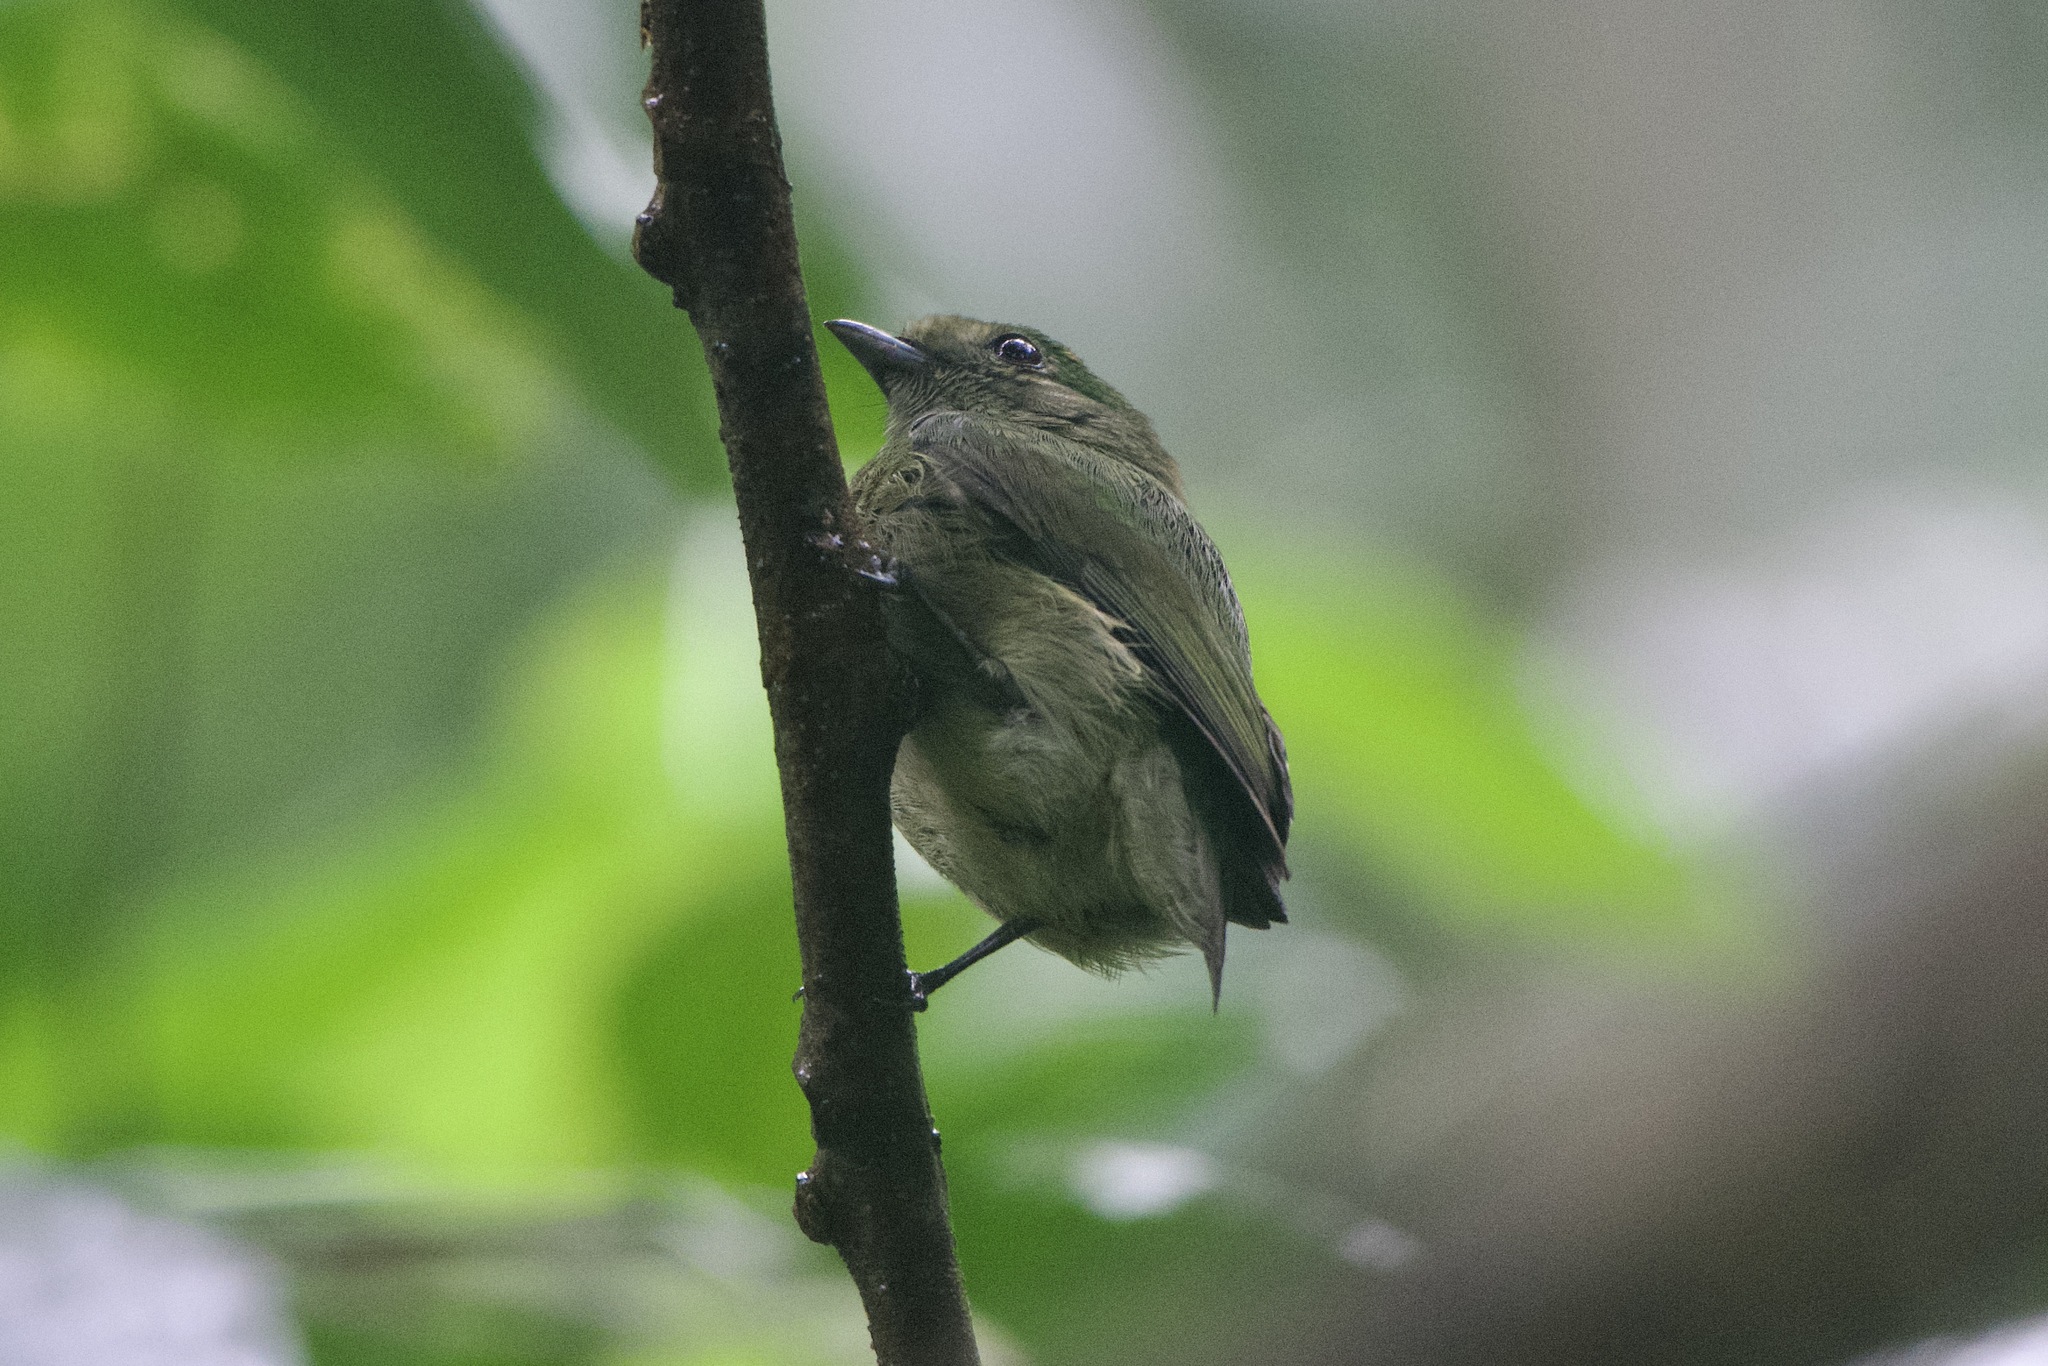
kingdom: Animalia
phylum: Chordata
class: Aves
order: Passeriformes
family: Pipridae
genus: Lepidothrix
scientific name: Lepidothrix coronata
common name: Blue-crowned manakin
